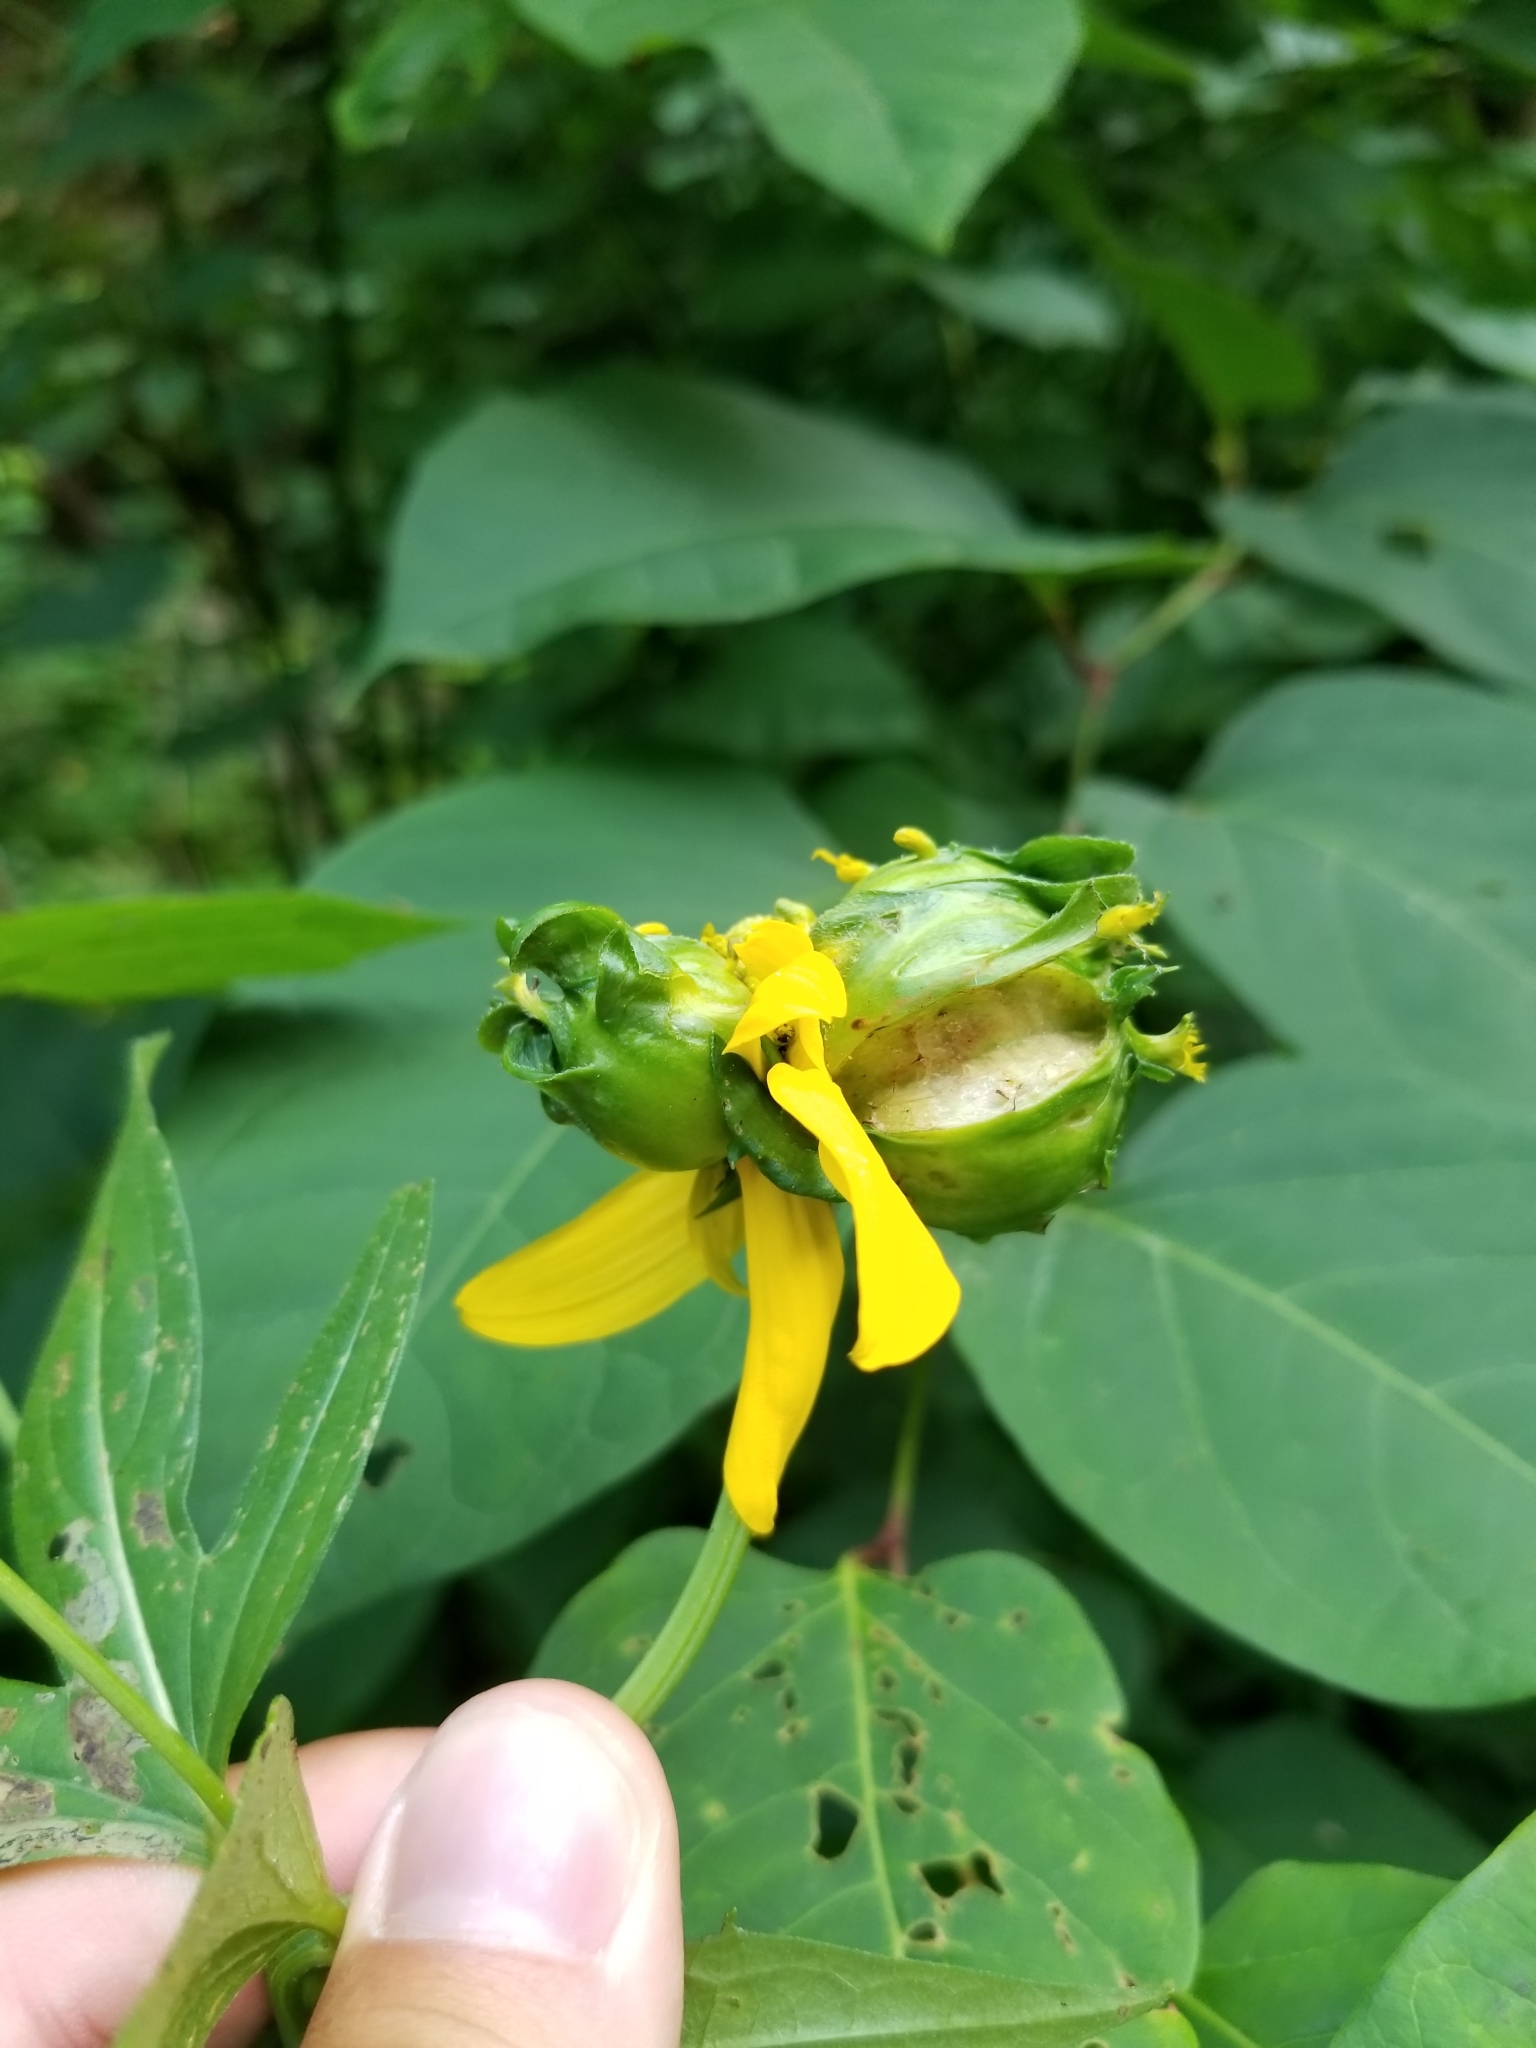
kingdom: Animalia
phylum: Arthropoda
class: Insecta
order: Diptera
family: Cecidomyiidae
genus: Asphondylia
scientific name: Asphondylia rudbeckiaeconspicua
